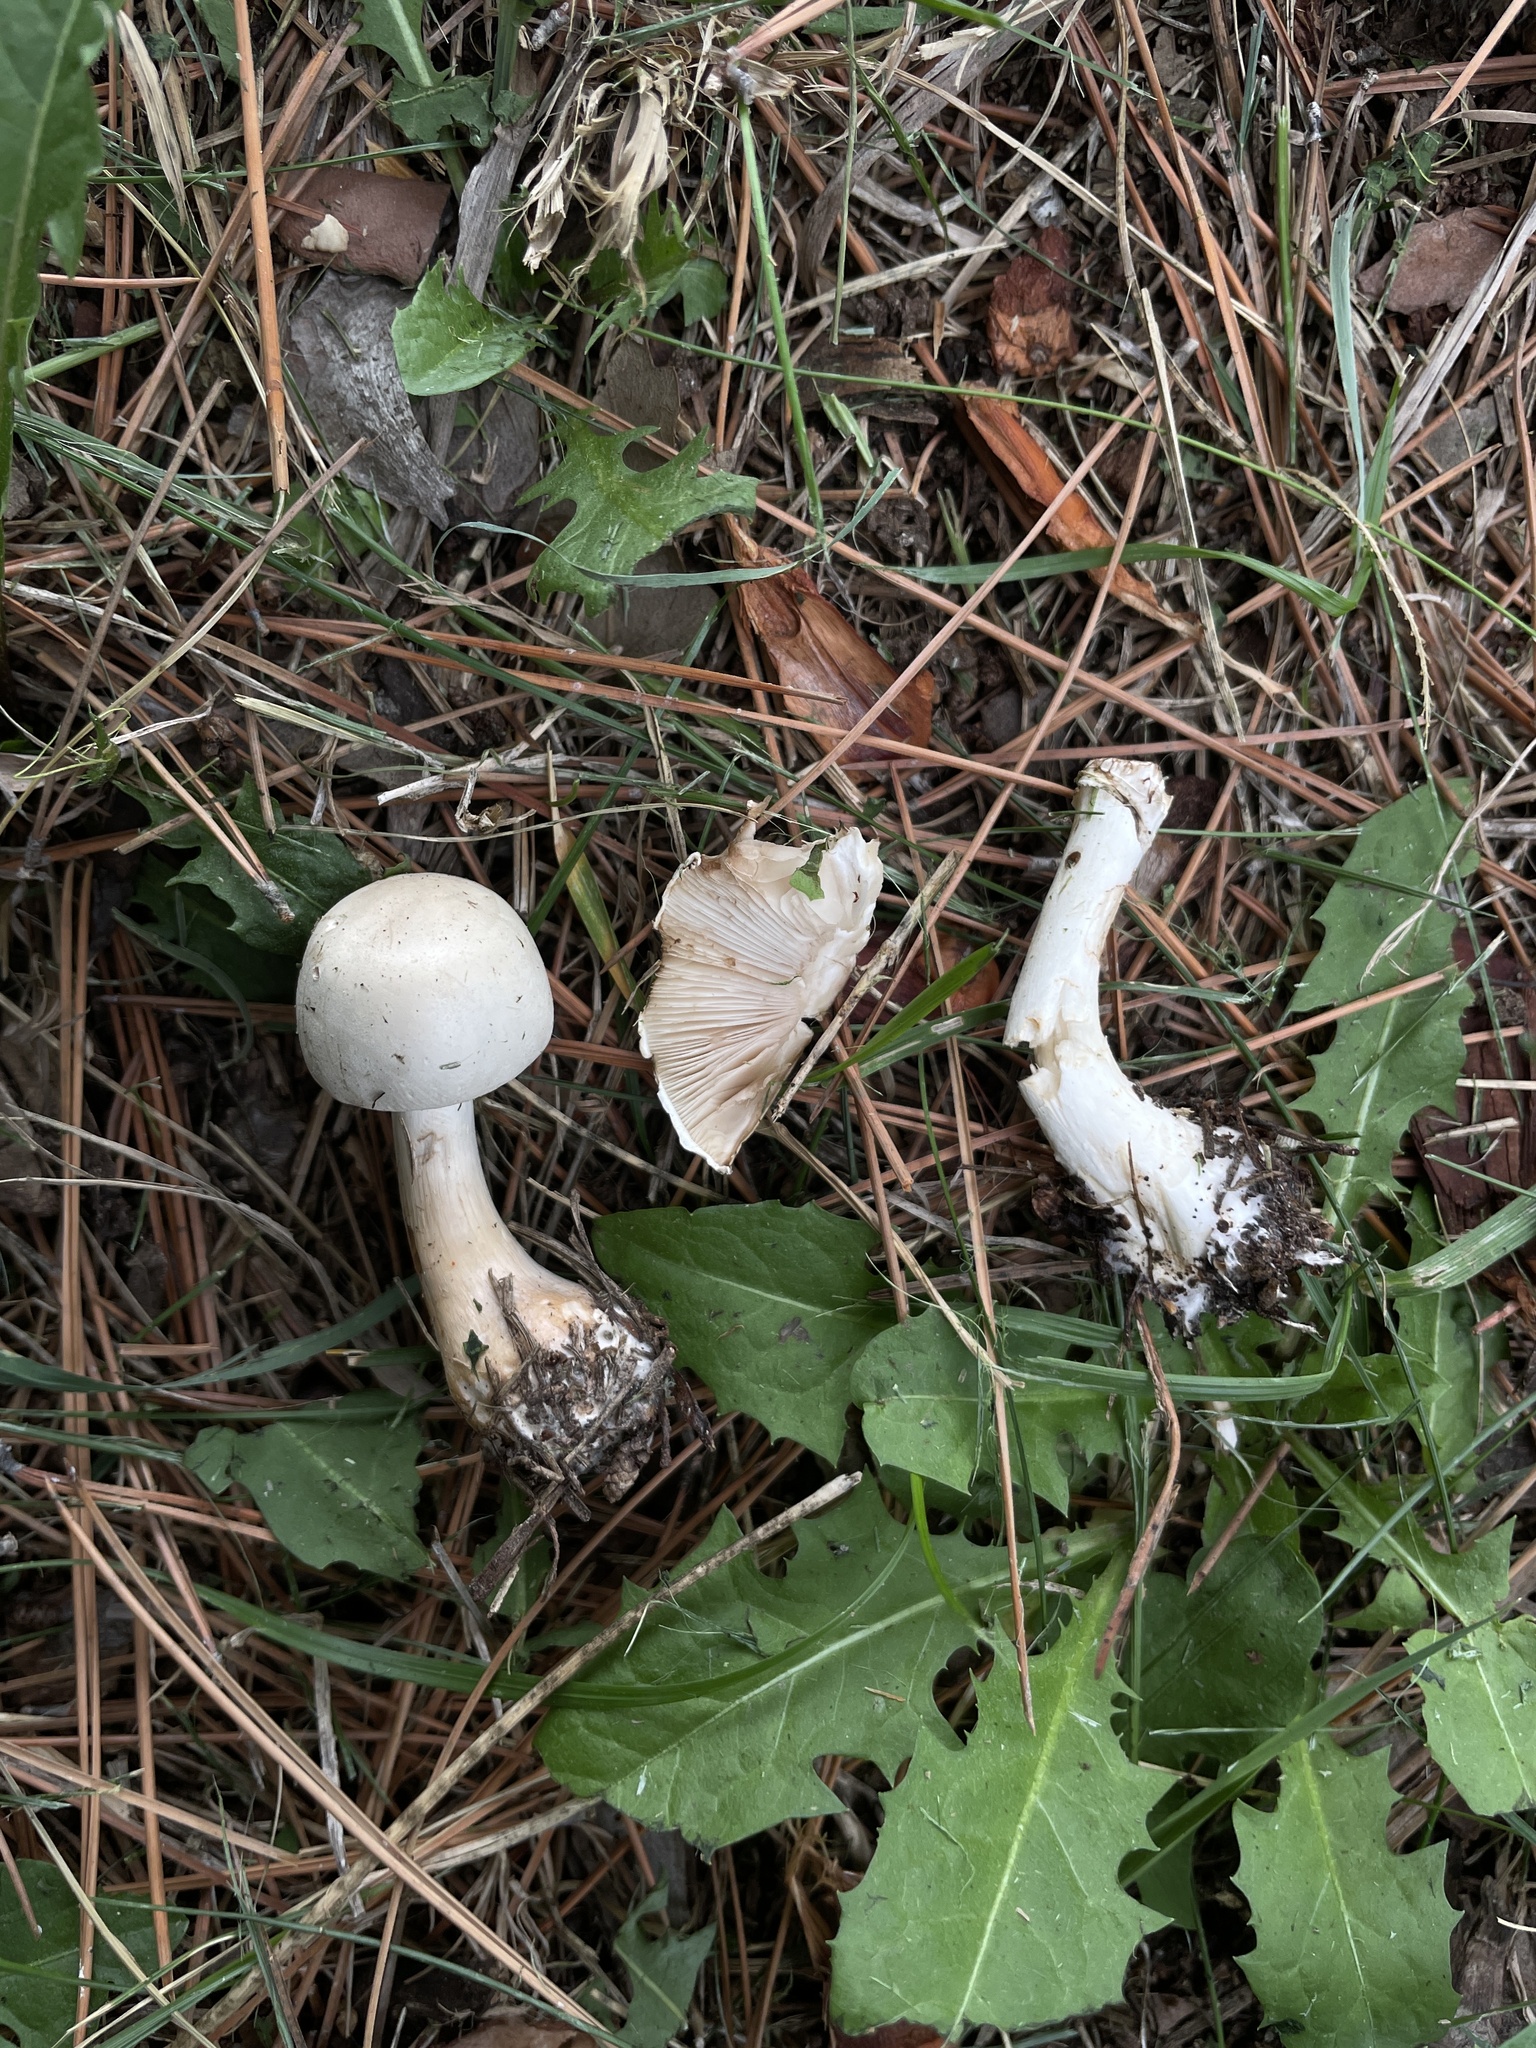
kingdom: Fungi
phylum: Basidiomycota
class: Agaricomycetes
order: Agaricales
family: Agaricaceae
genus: Leucoagaricus
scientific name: Leucoagaricus leucothites
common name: White dapperling
